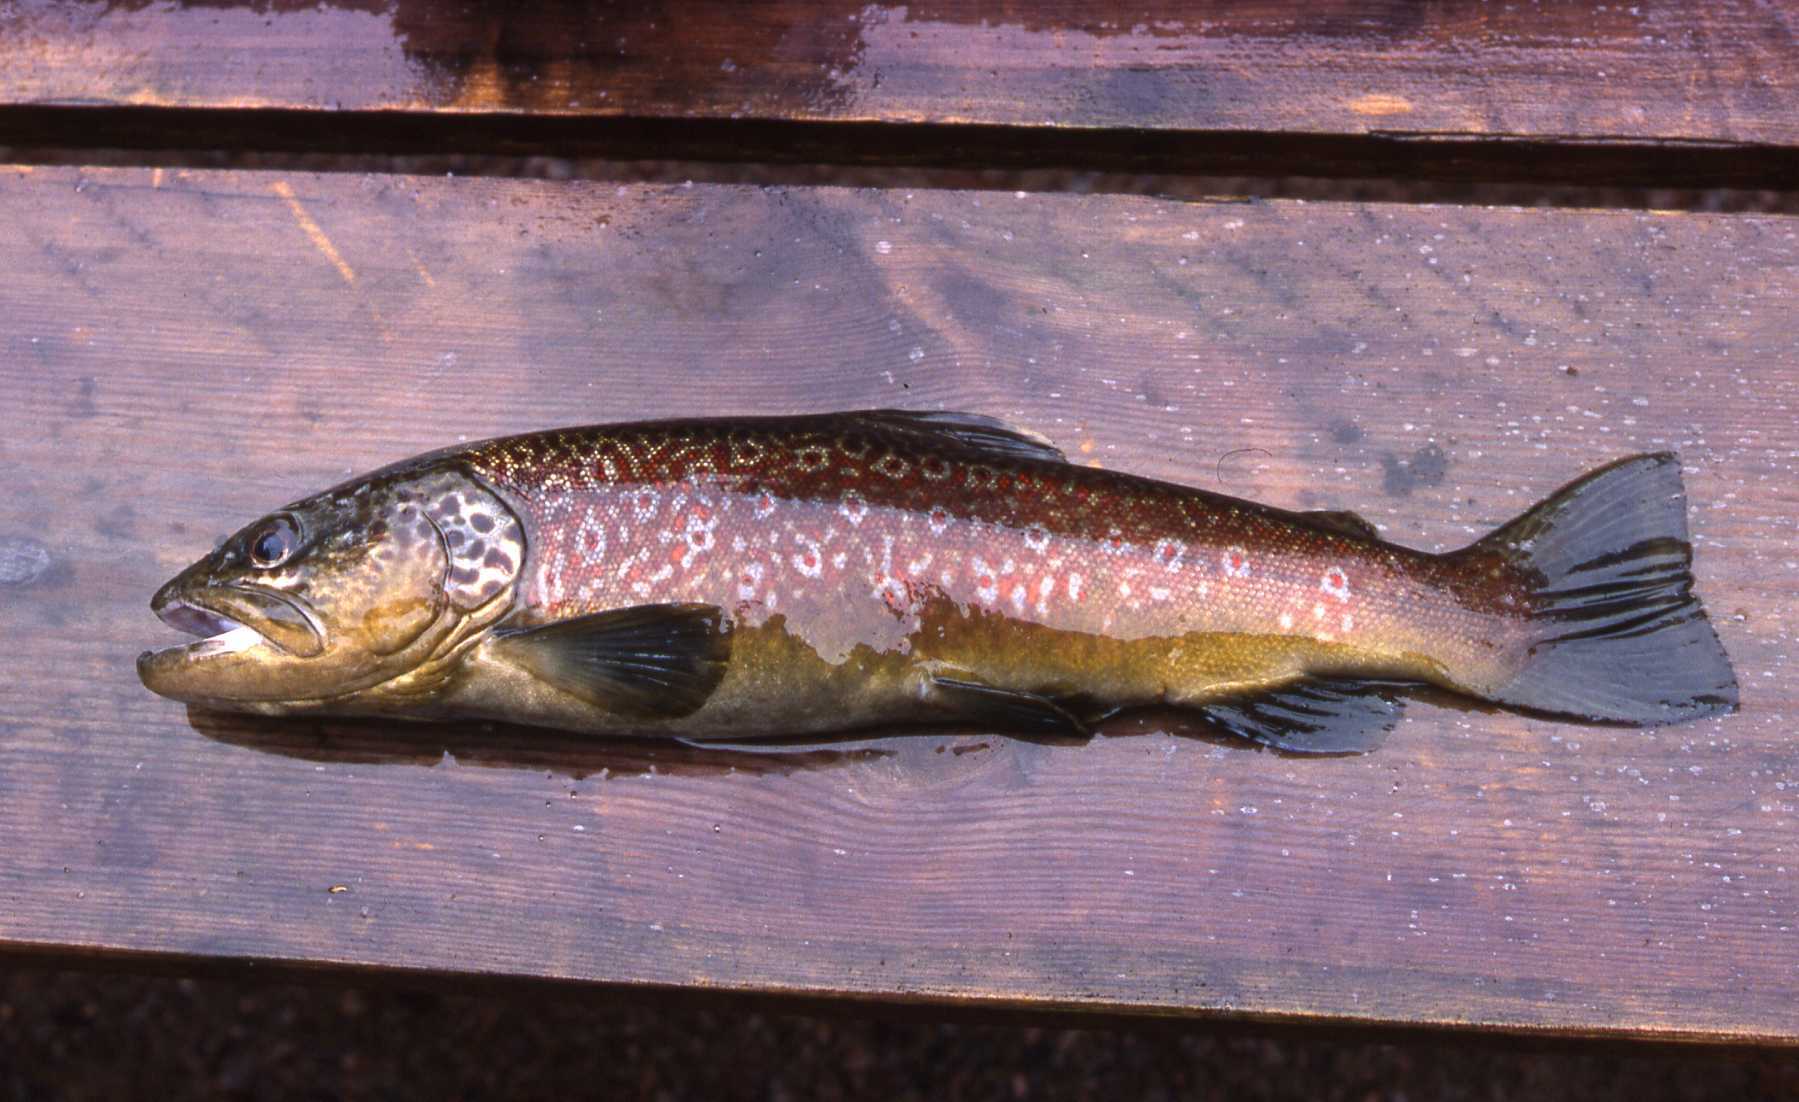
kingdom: Animalia
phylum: Chordata
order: Salmoniformes
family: Salmonidae
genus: Salmo
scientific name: Salmo trutta
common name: Brown trout
